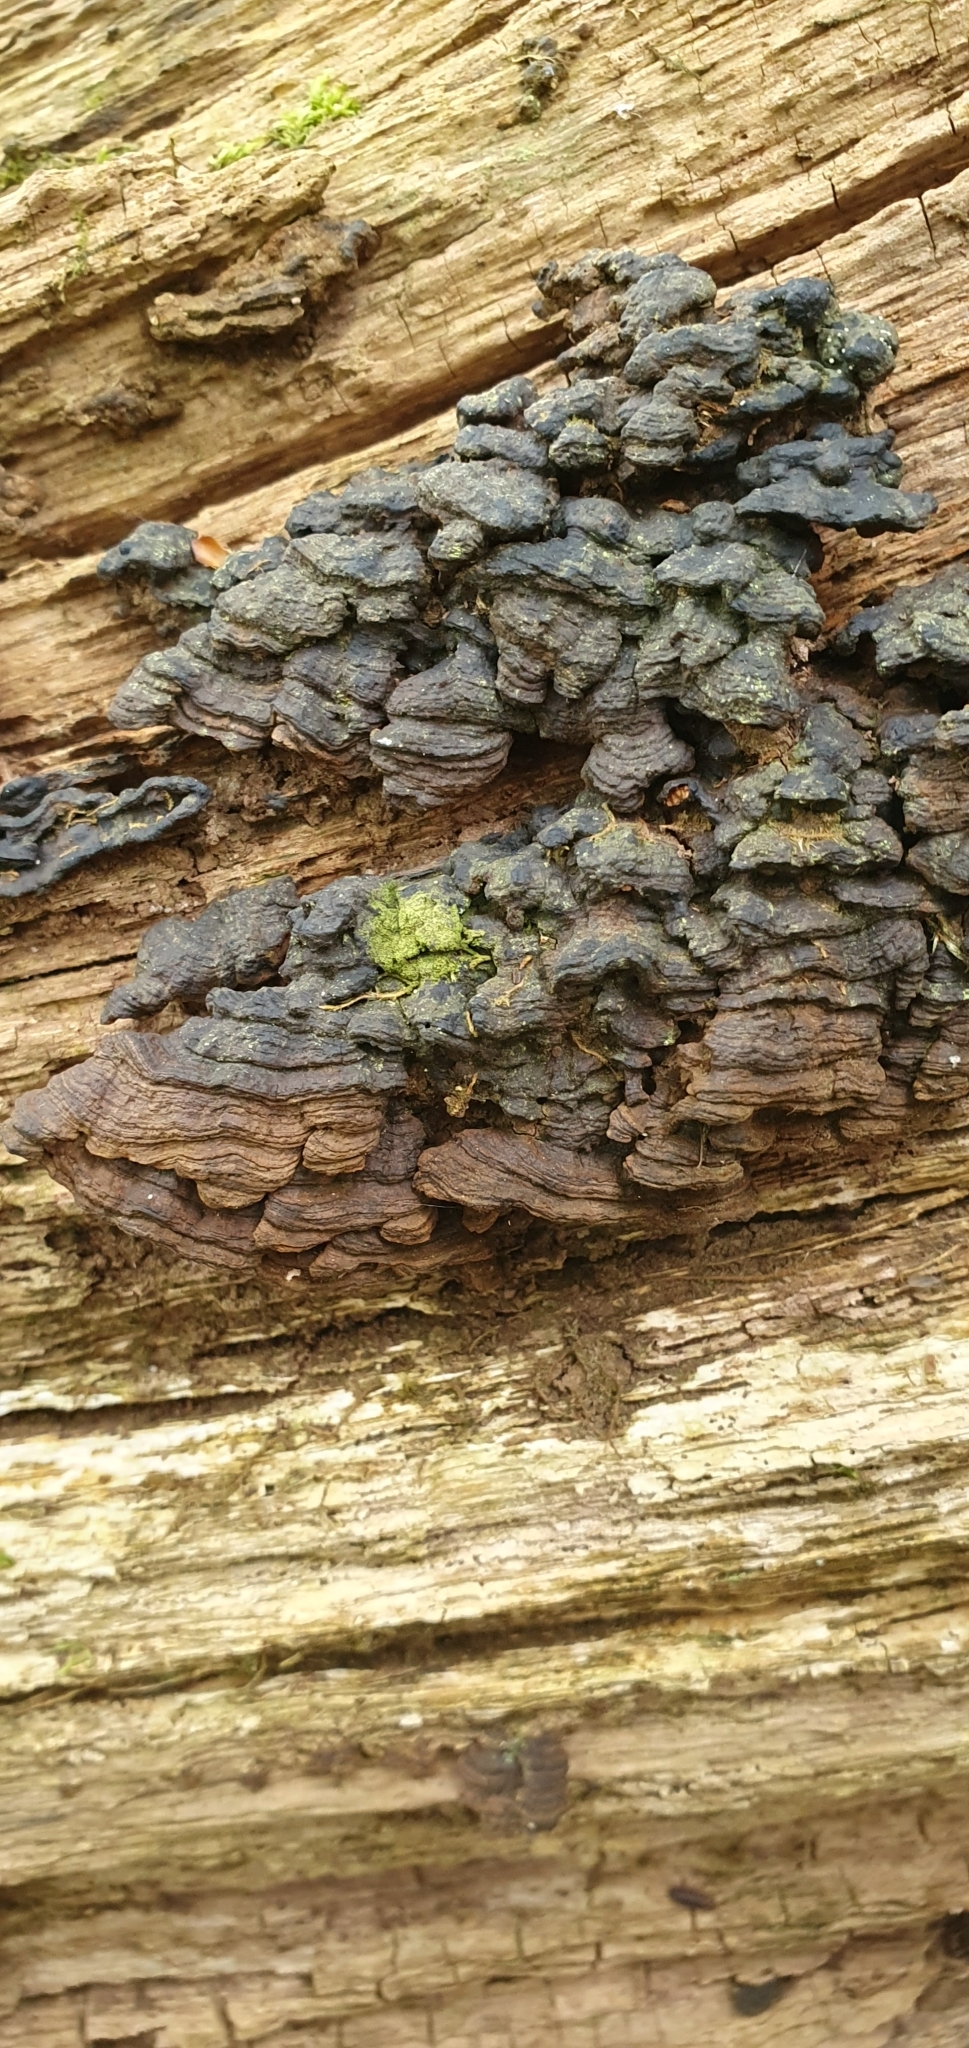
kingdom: Fungi
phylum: Basidiomycota
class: Agaricomycetes
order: Hymenochaetales
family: Hymenochaetaceae
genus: Hymenochaete
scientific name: Hymenochaete rubiginosa
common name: Oak curtain crust
